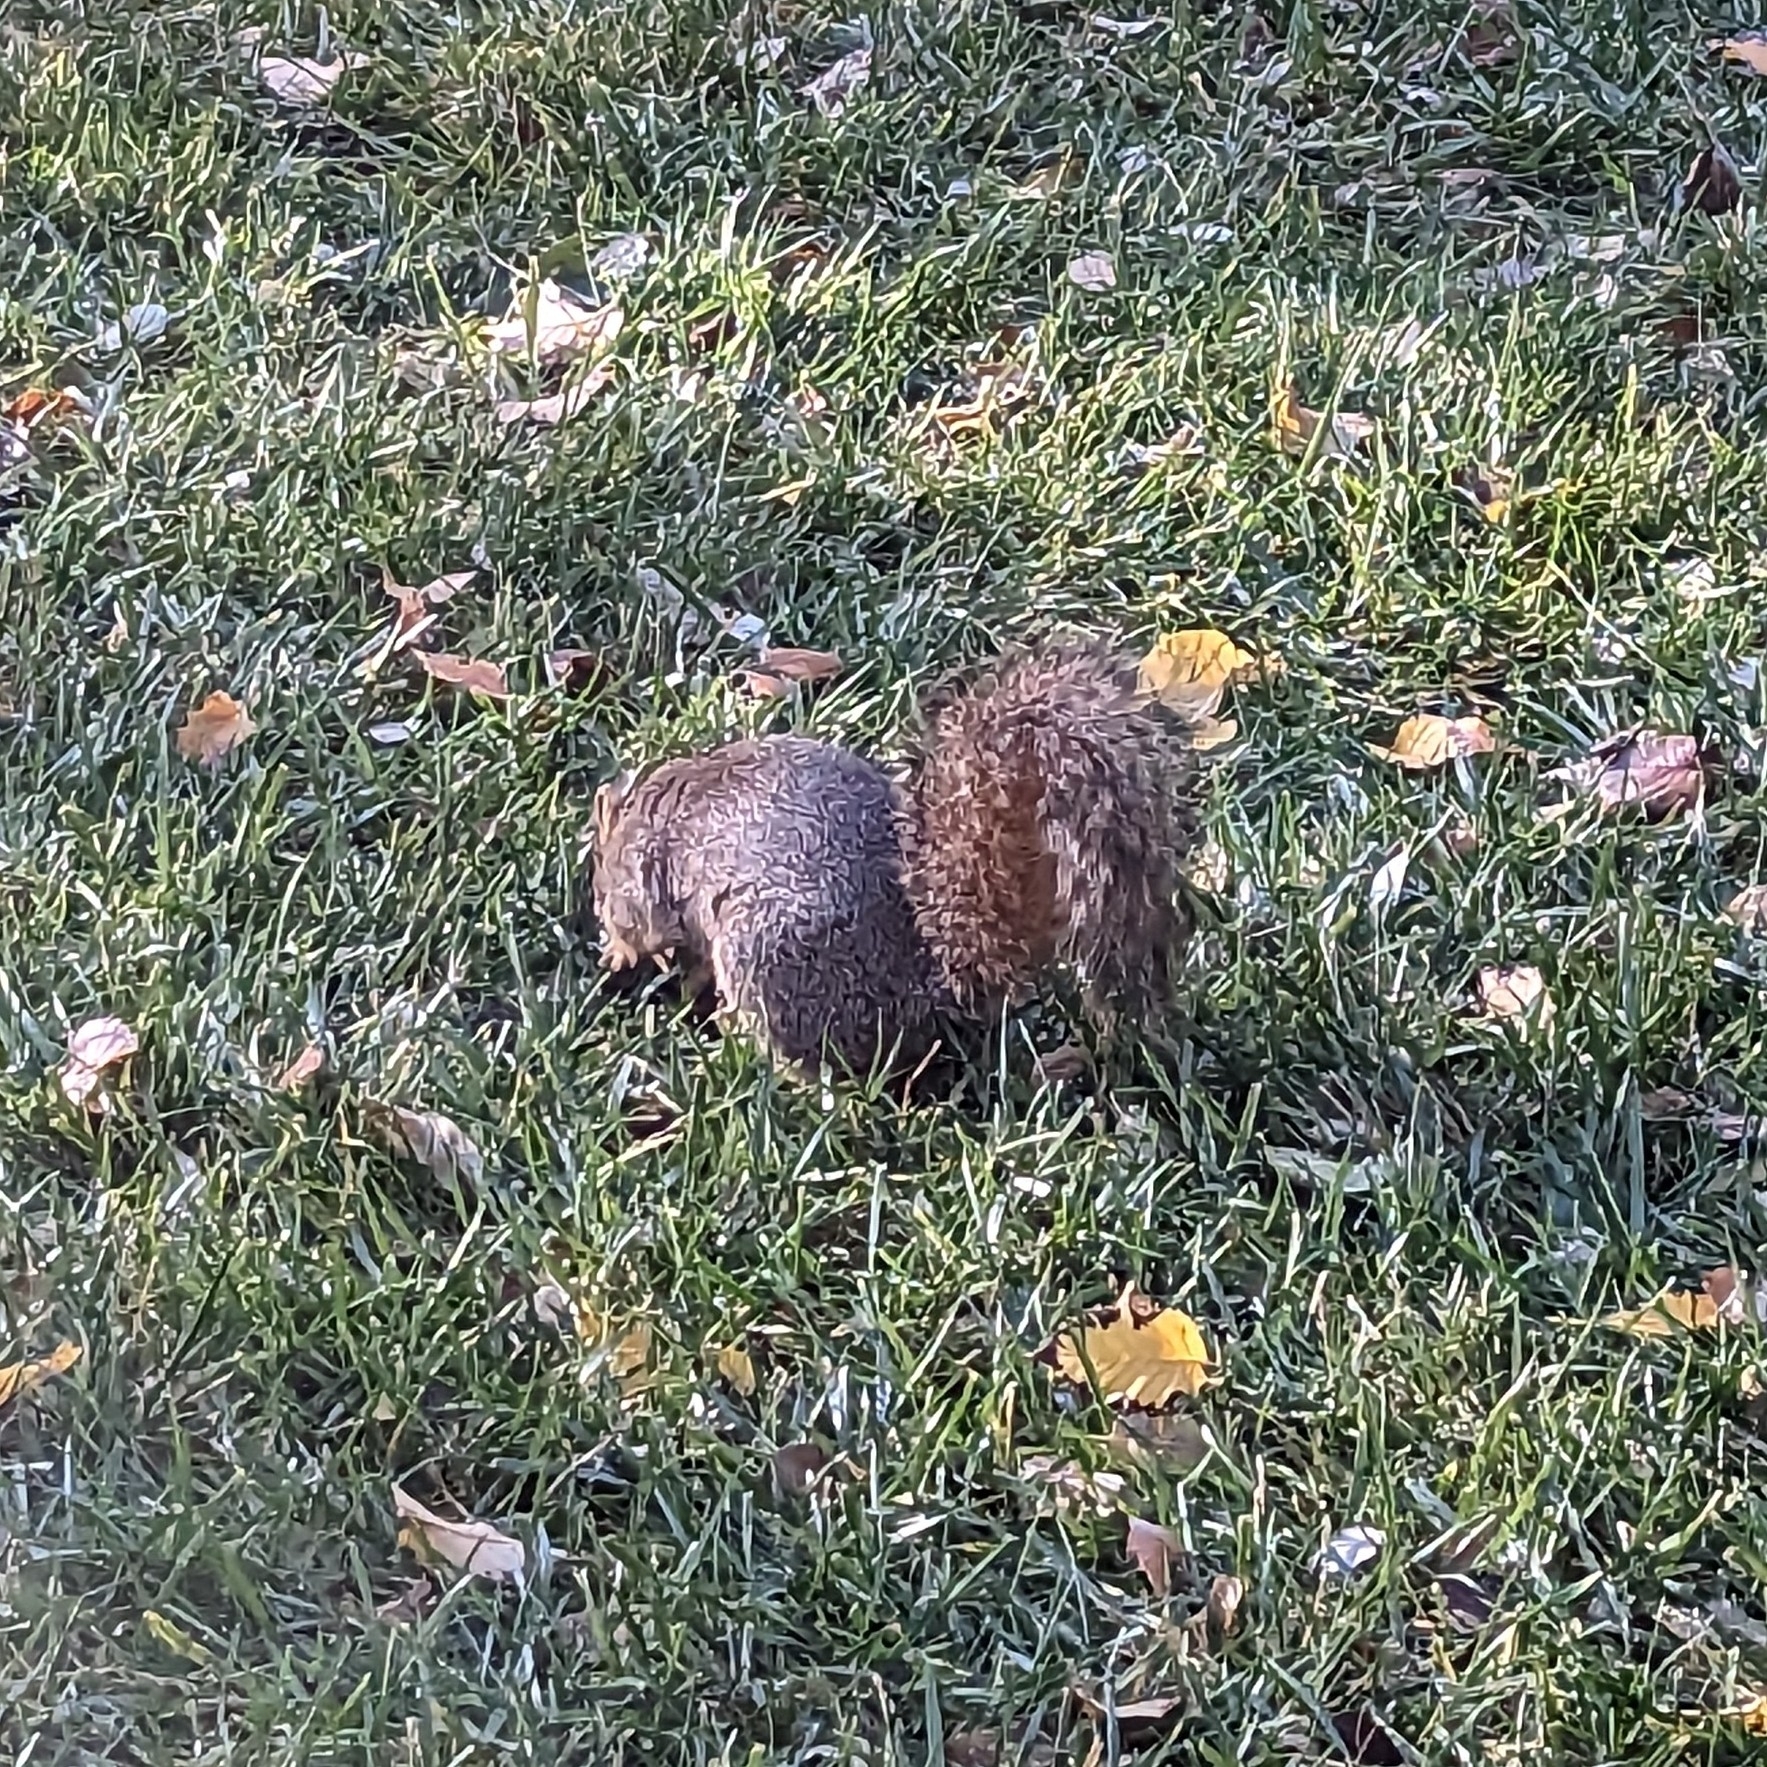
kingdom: Animalia
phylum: Chordata
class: Mammalia
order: Rodentia
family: Sciuridae
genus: Sciurus
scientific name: Sciurus niger
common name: Fox squirrel
